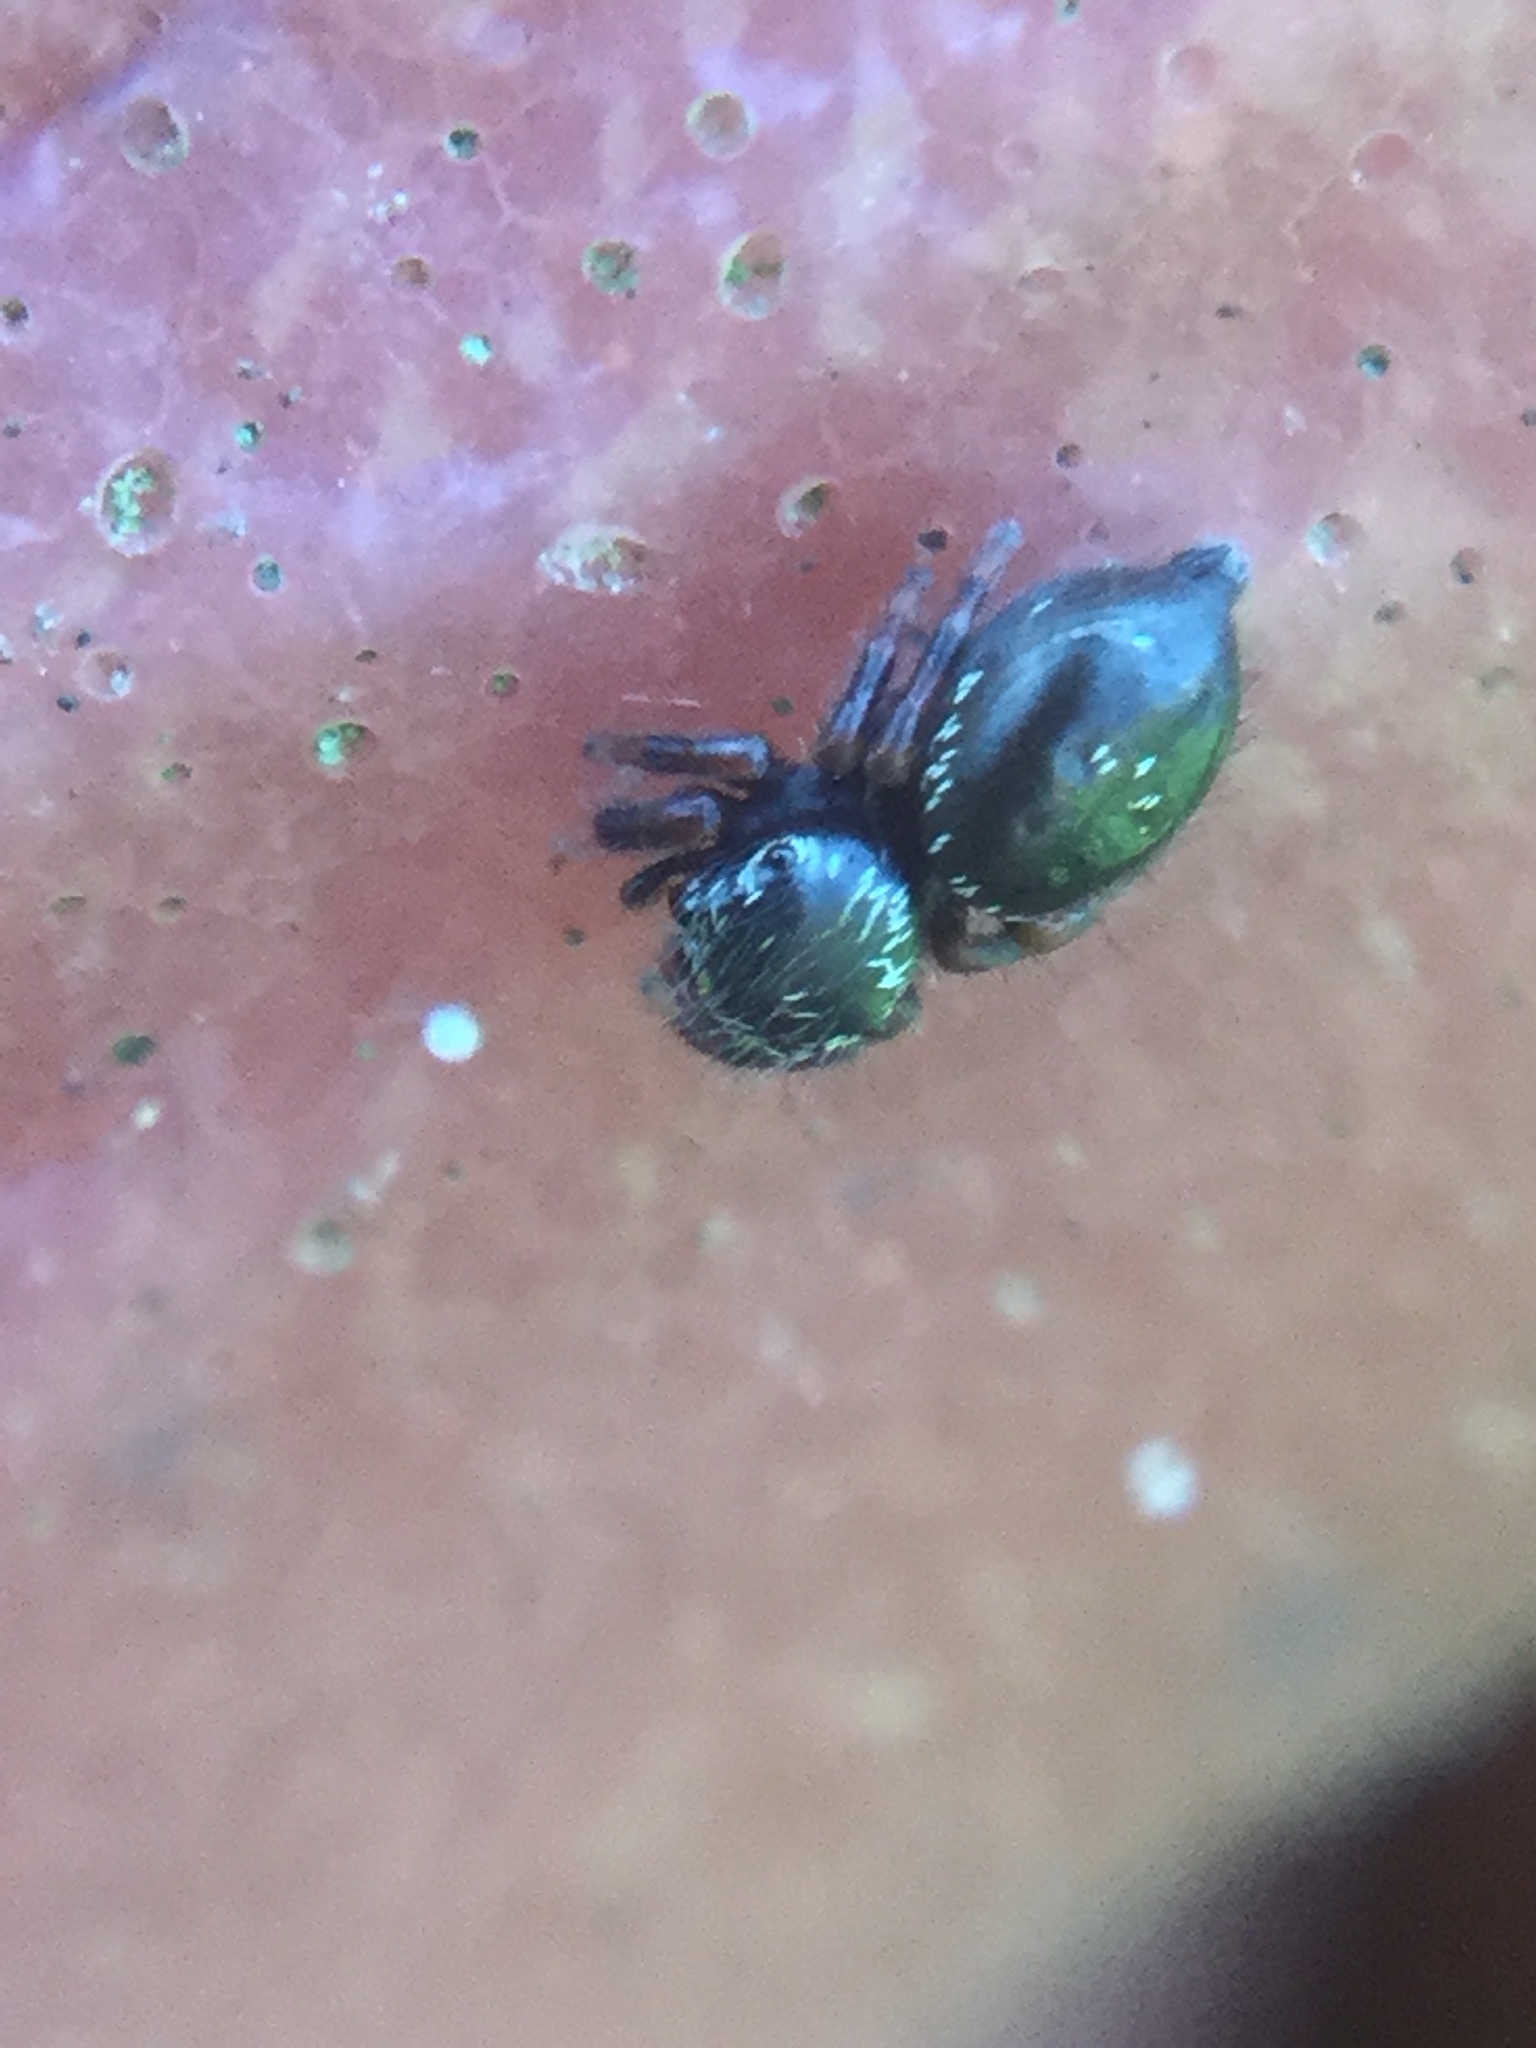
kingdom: Animalia
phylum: Arthropoda
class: Arachnida
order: Araneae
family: Salticidae
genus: Phidippus
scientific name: Phidippus audax
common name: Bold jumper
